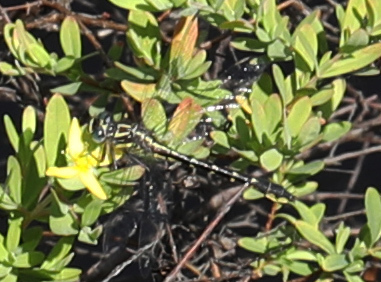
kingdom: Animalia
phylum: Arthropoda
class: Insecta
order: Odonata
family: Gomphidae
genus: Hylogomphus
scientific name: Hylogomphus geminatus
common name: Twin-striped clubtail
